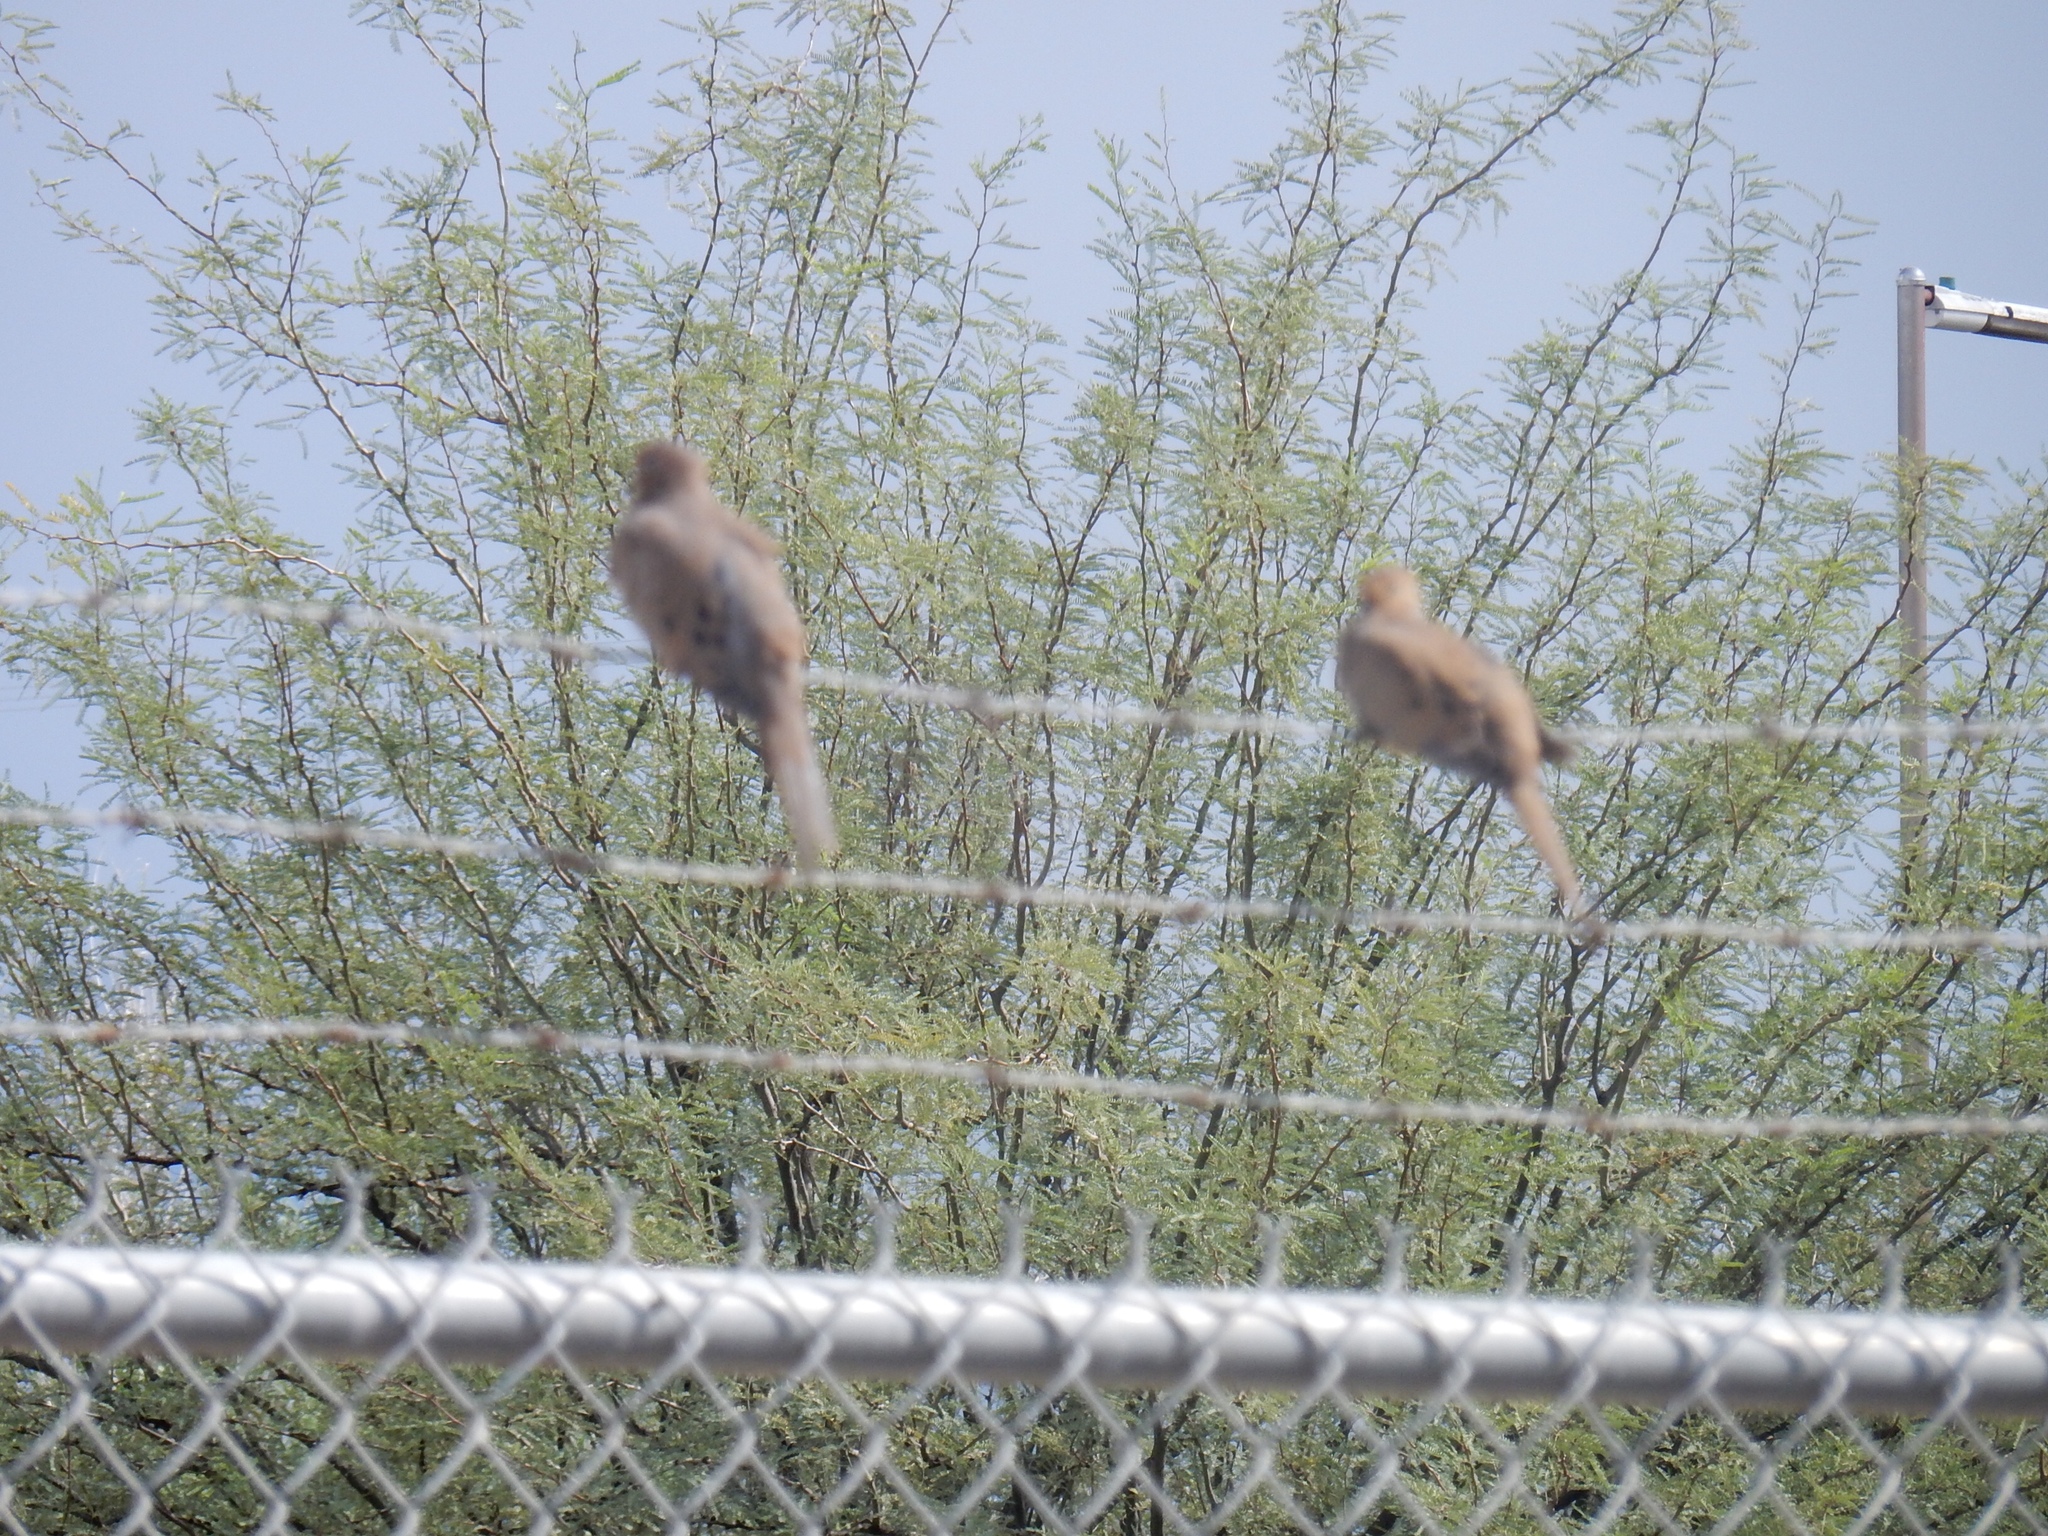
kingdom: Animalia
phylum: Chordata
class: Aves
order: Columbiformes
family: Columbidae
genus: Zenaida
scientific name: Zenaida macroura
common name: Mourning dove
